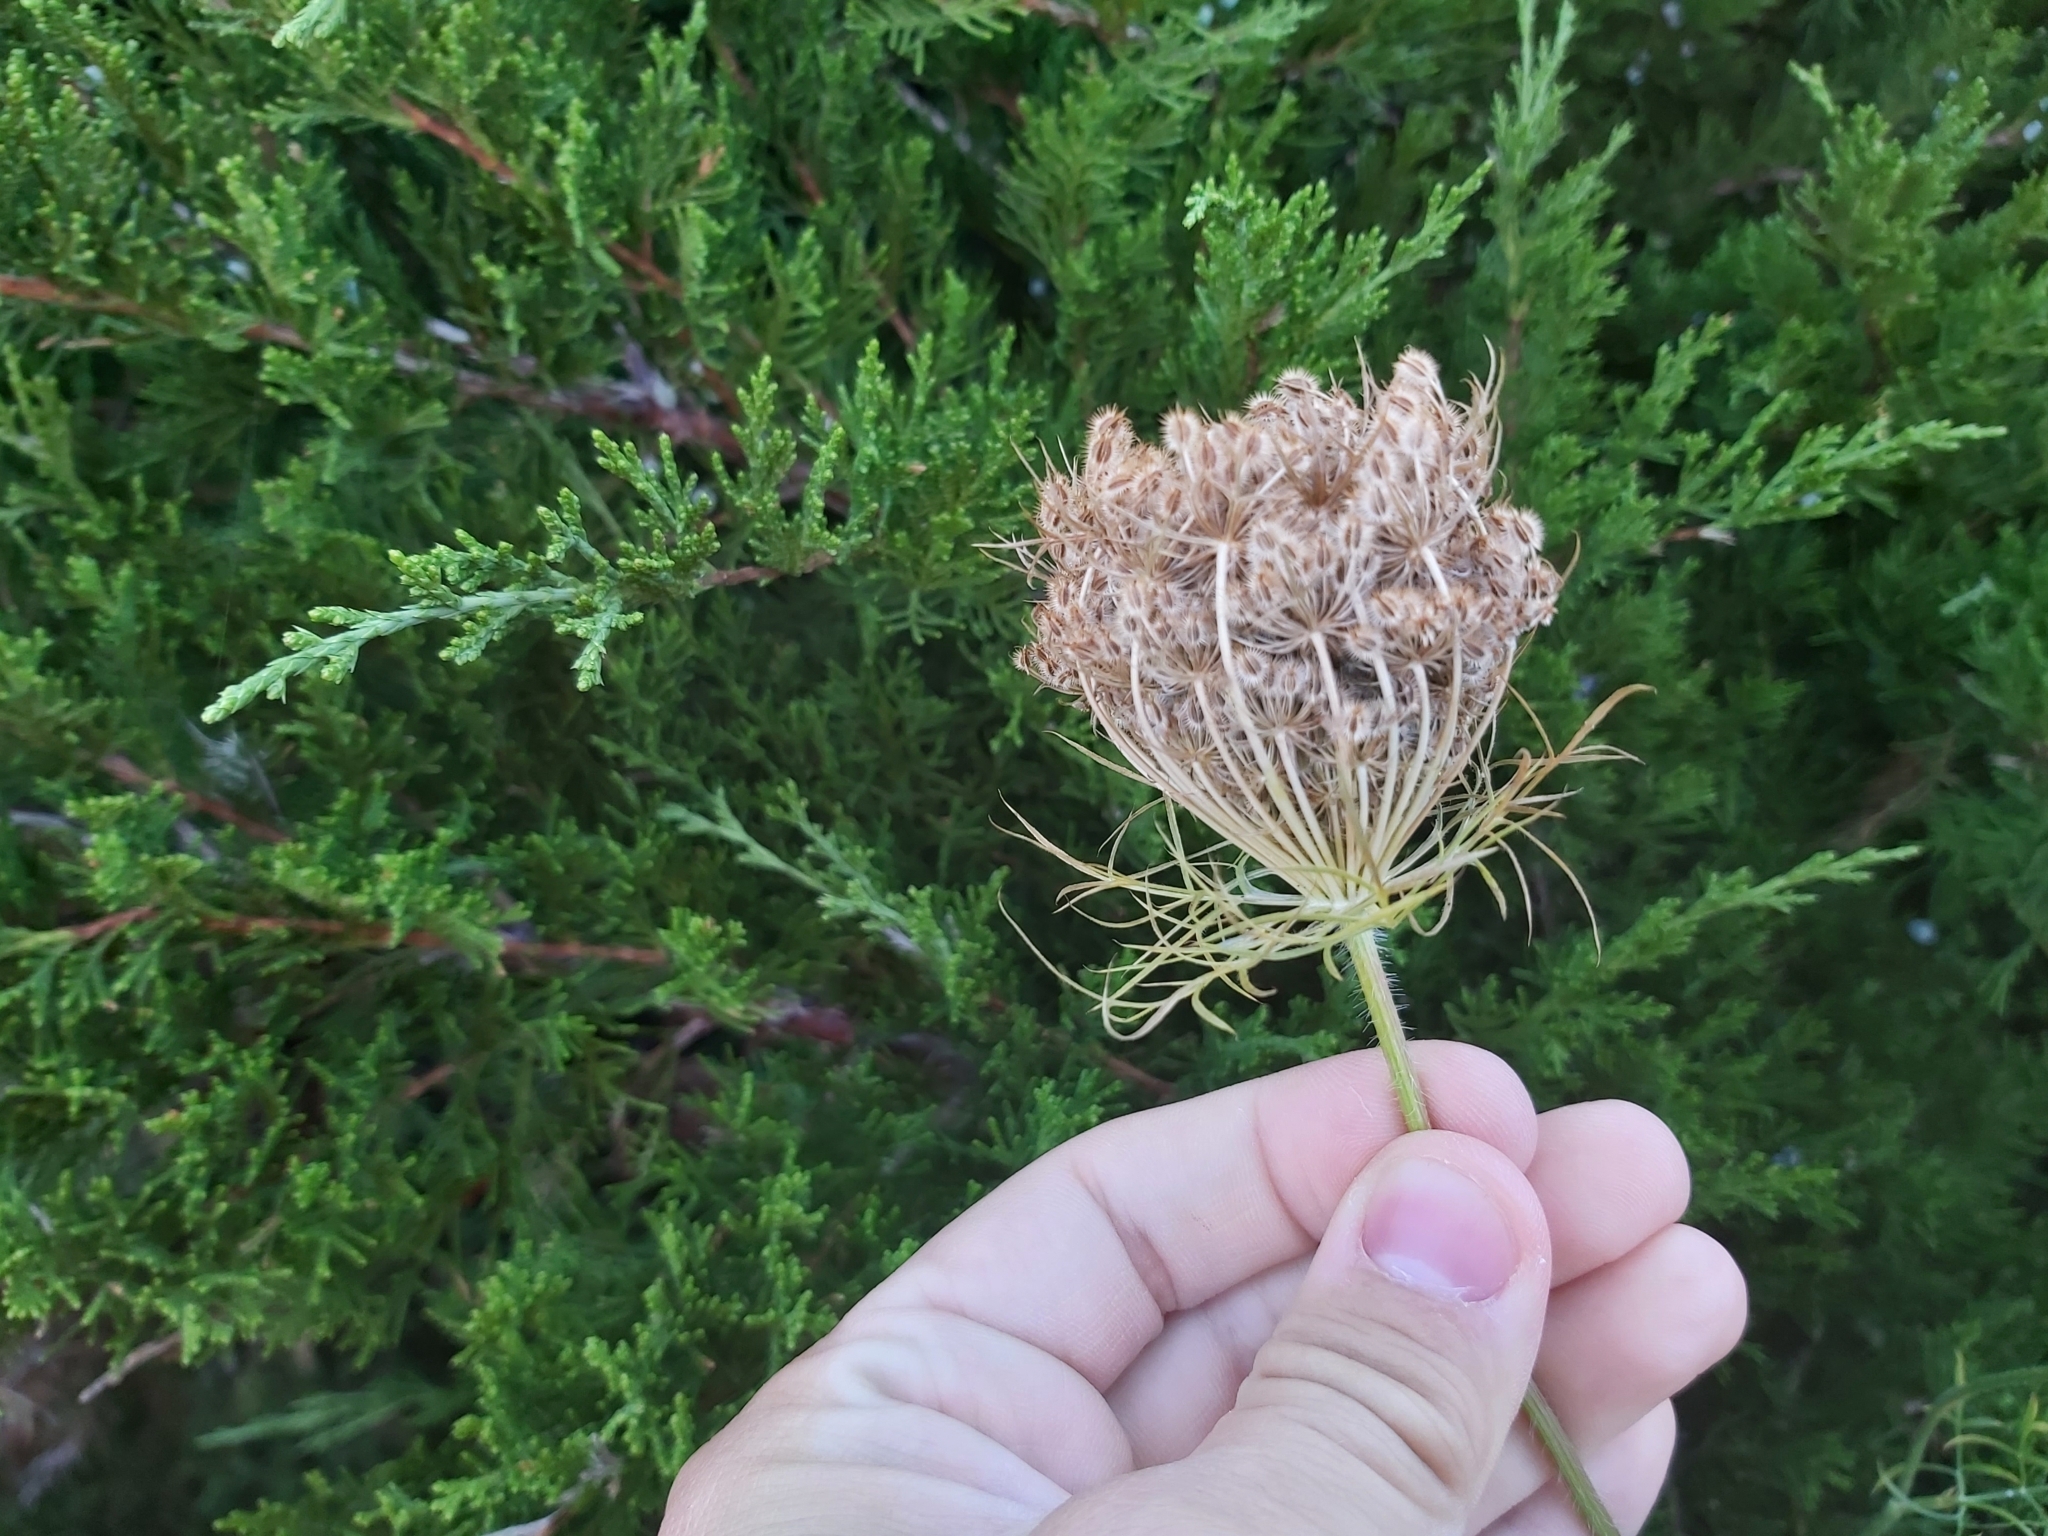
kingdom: Plantae
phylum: Tracheophyta
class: Magnoliopsida
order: Apiales
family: Apiaceae
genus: Daucus
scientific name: Daucus carota
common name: Wild carrot
